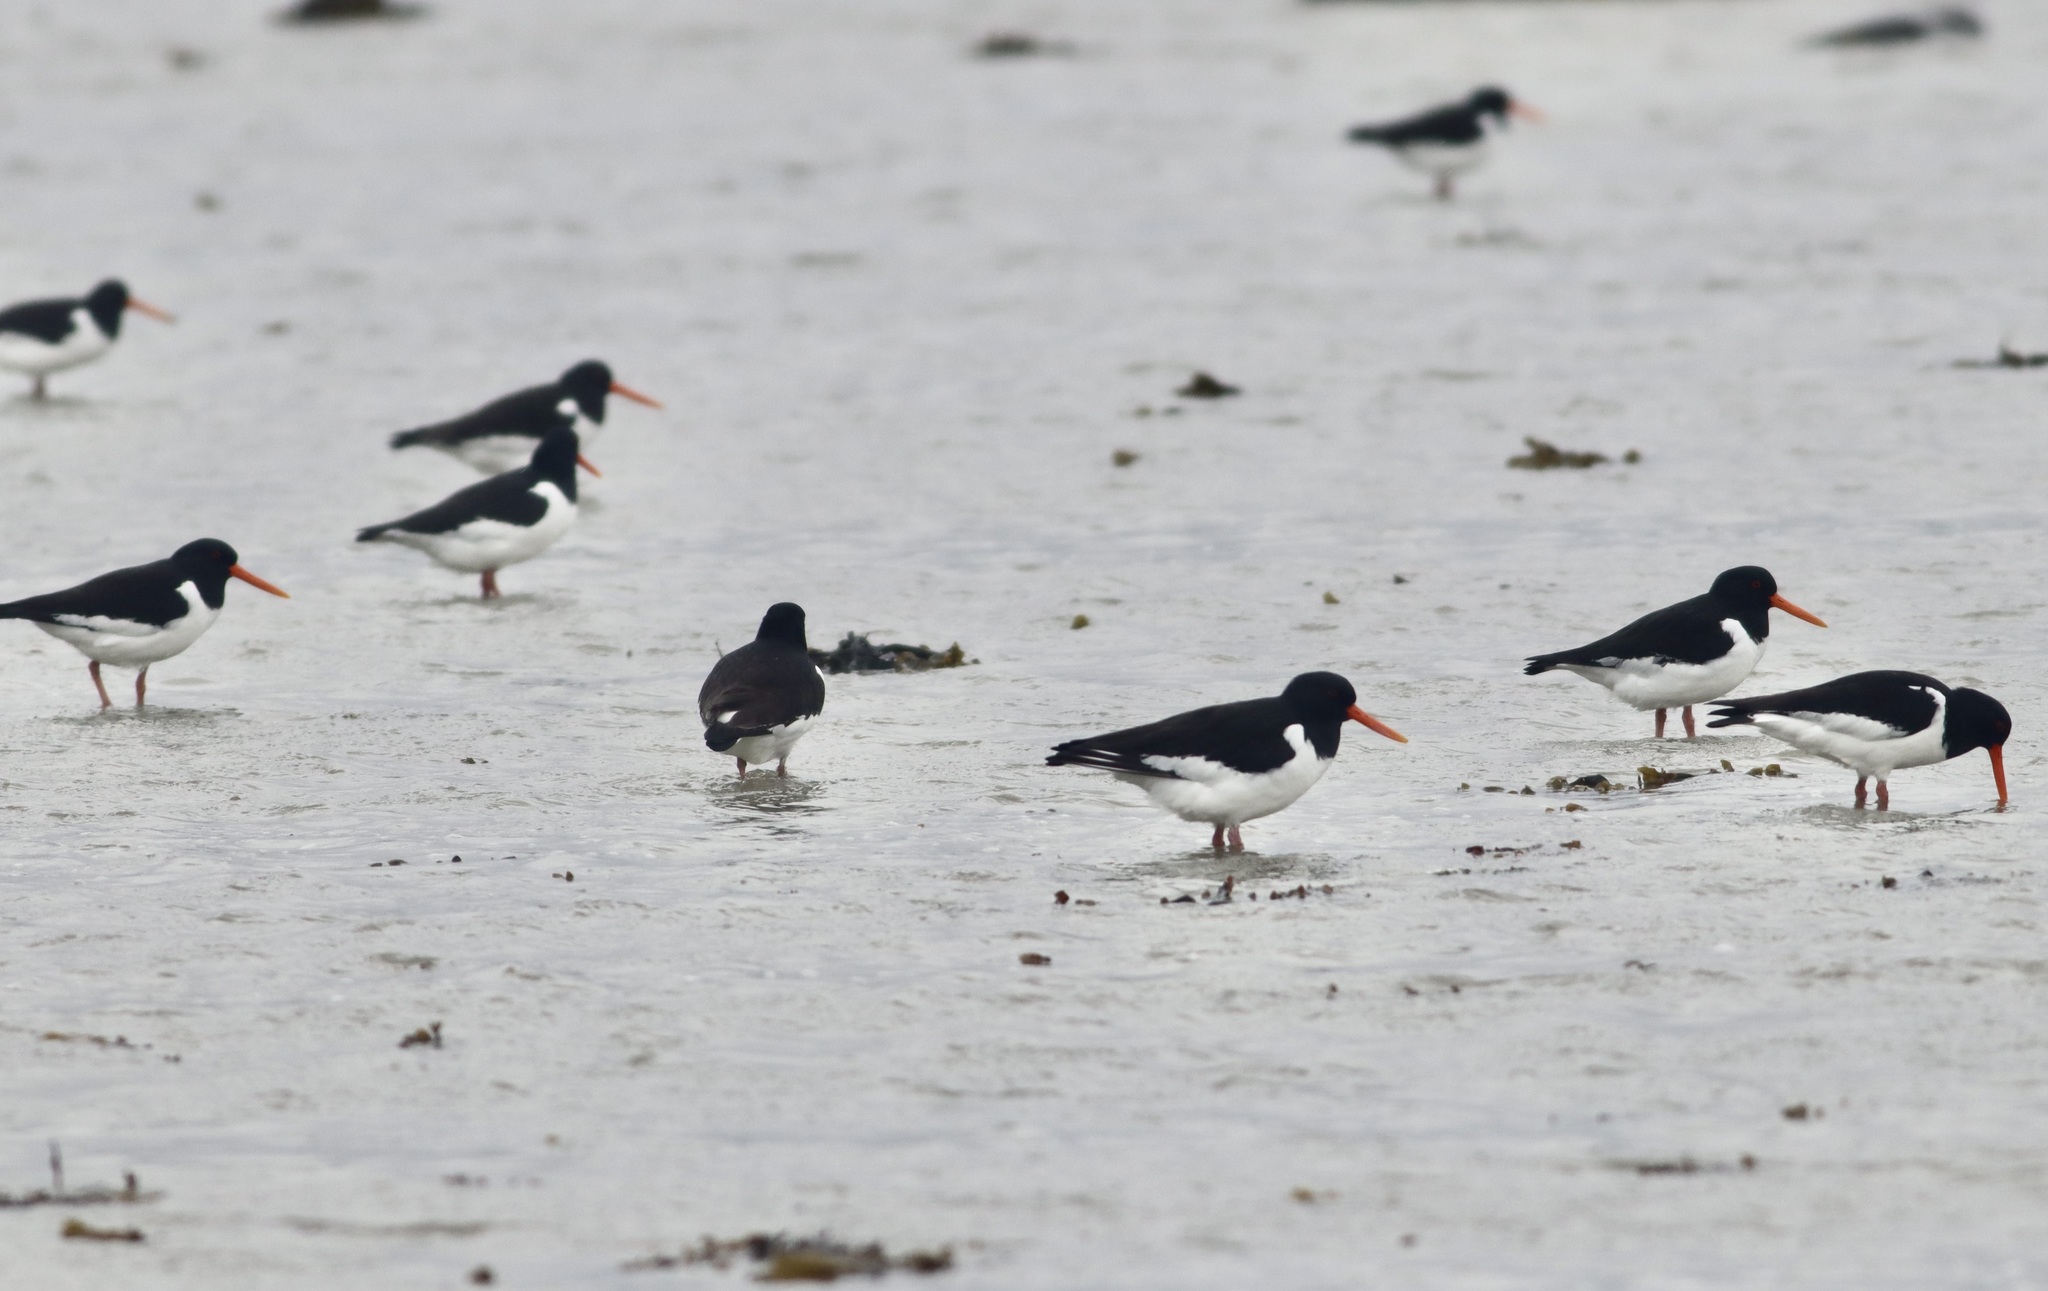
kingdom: Animalia
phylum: Chordata
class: Aves
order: Charadriiformes
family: Haematopodidae
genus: Haematopus
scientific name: Haematopus ostralegus
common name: Eurasian oystercatcher
